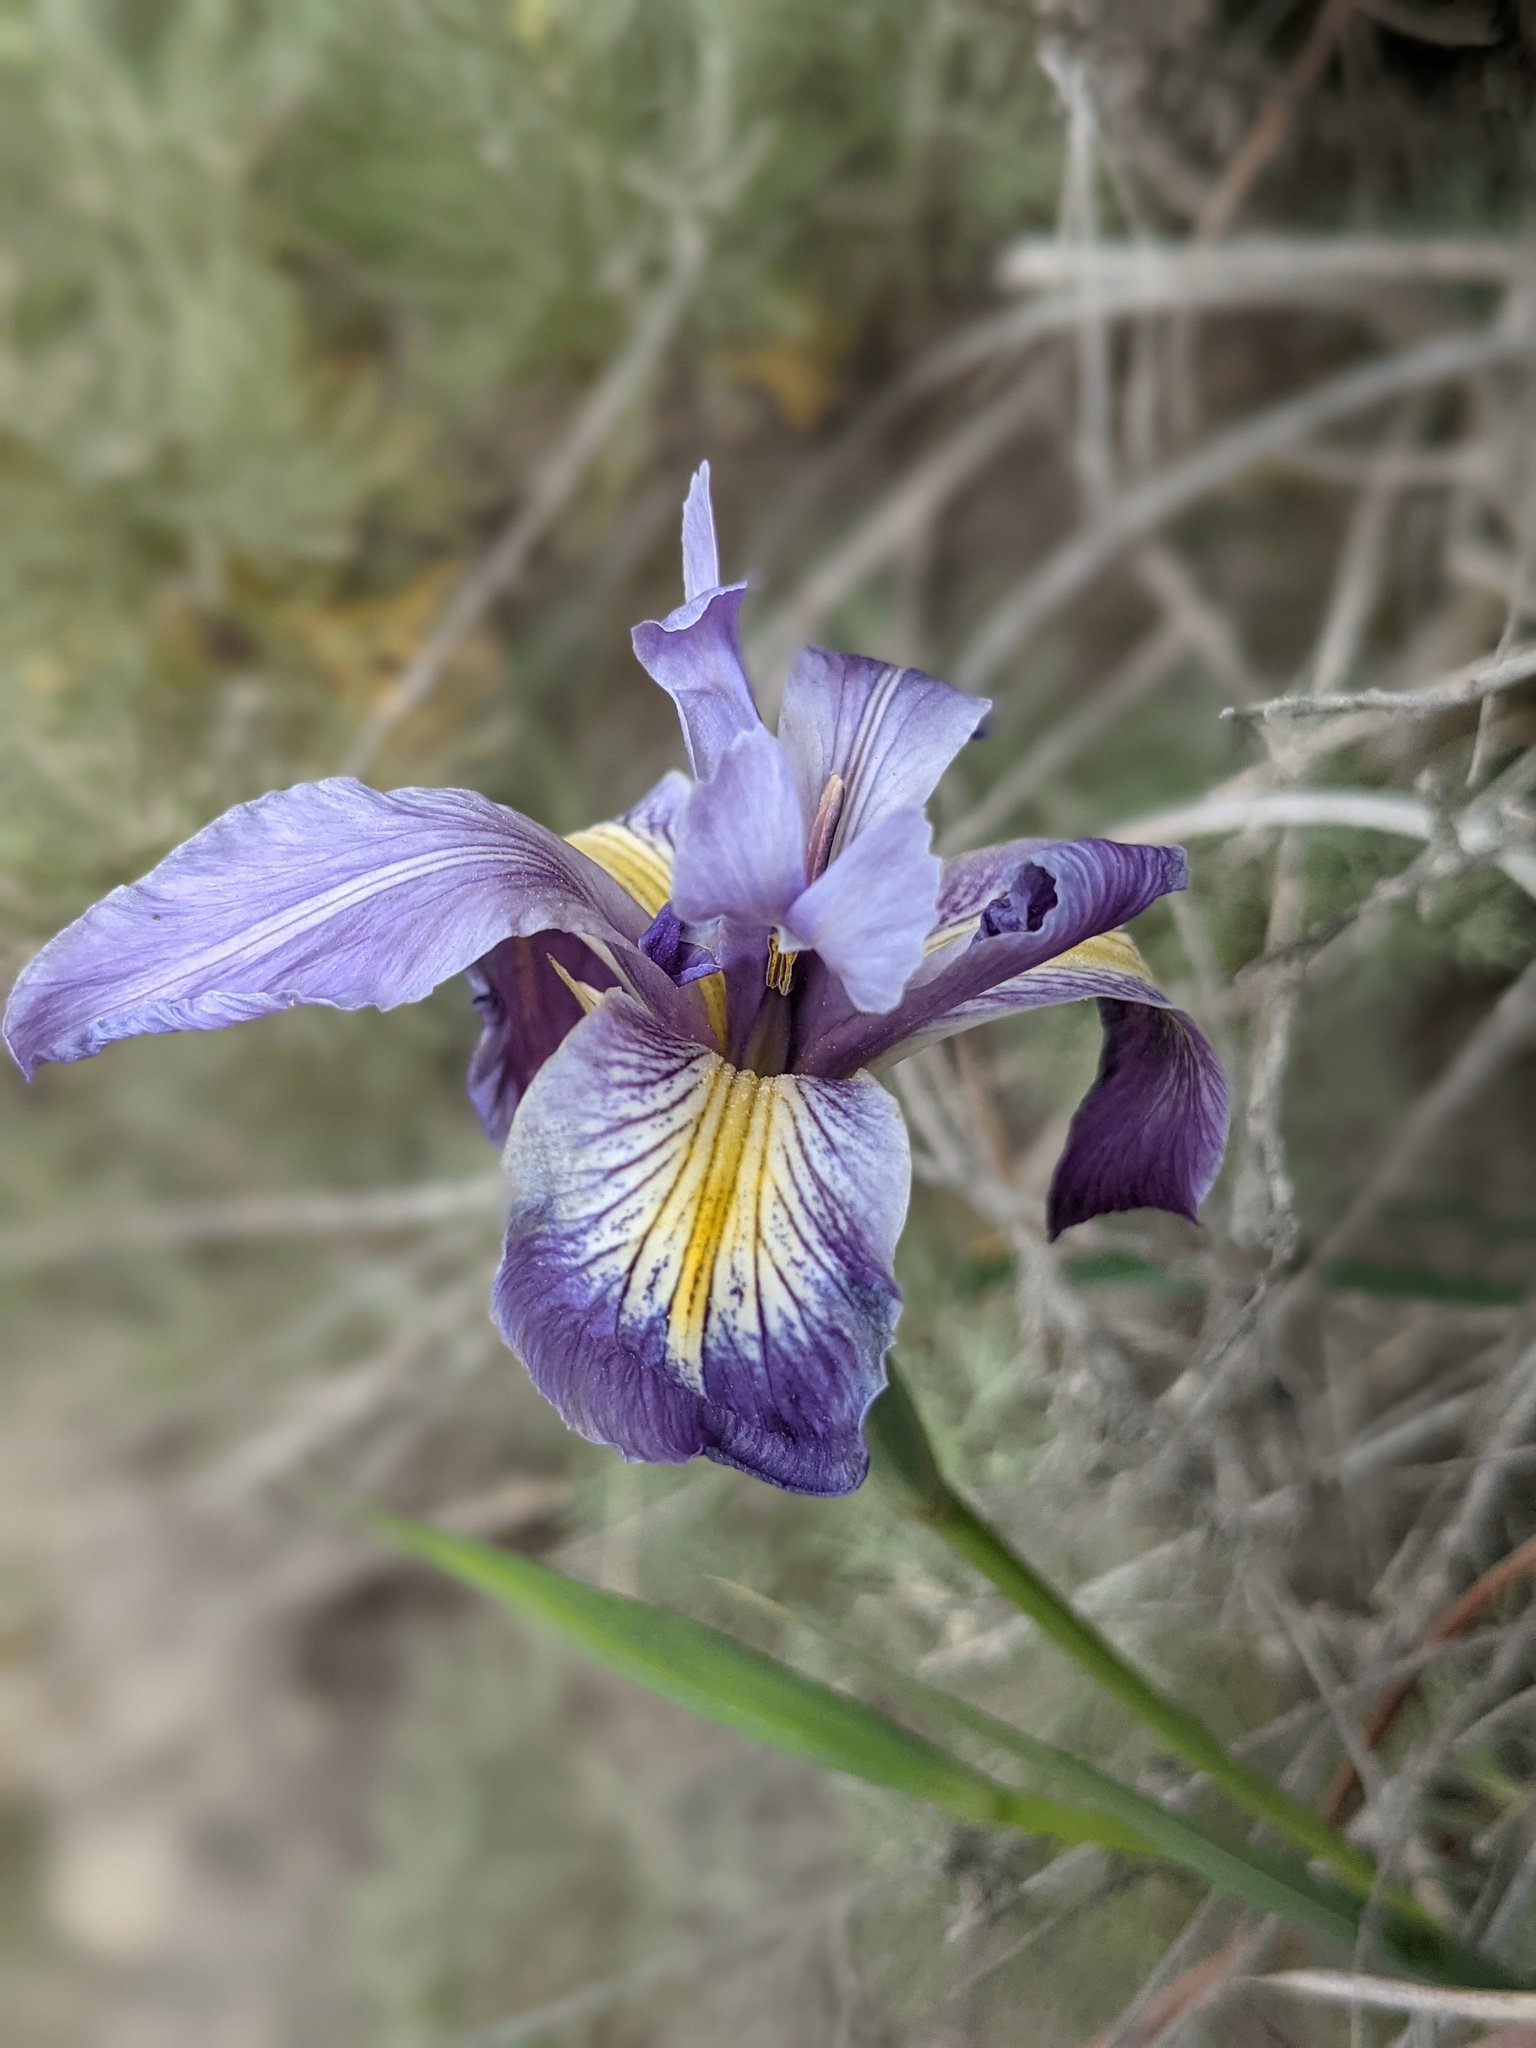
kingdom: Plantae
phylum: Tracheophyta
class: Liliopsida
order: Asparagales
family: Iridaceae
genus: Iris
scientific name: Iris douglasiana
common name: Marin iris
